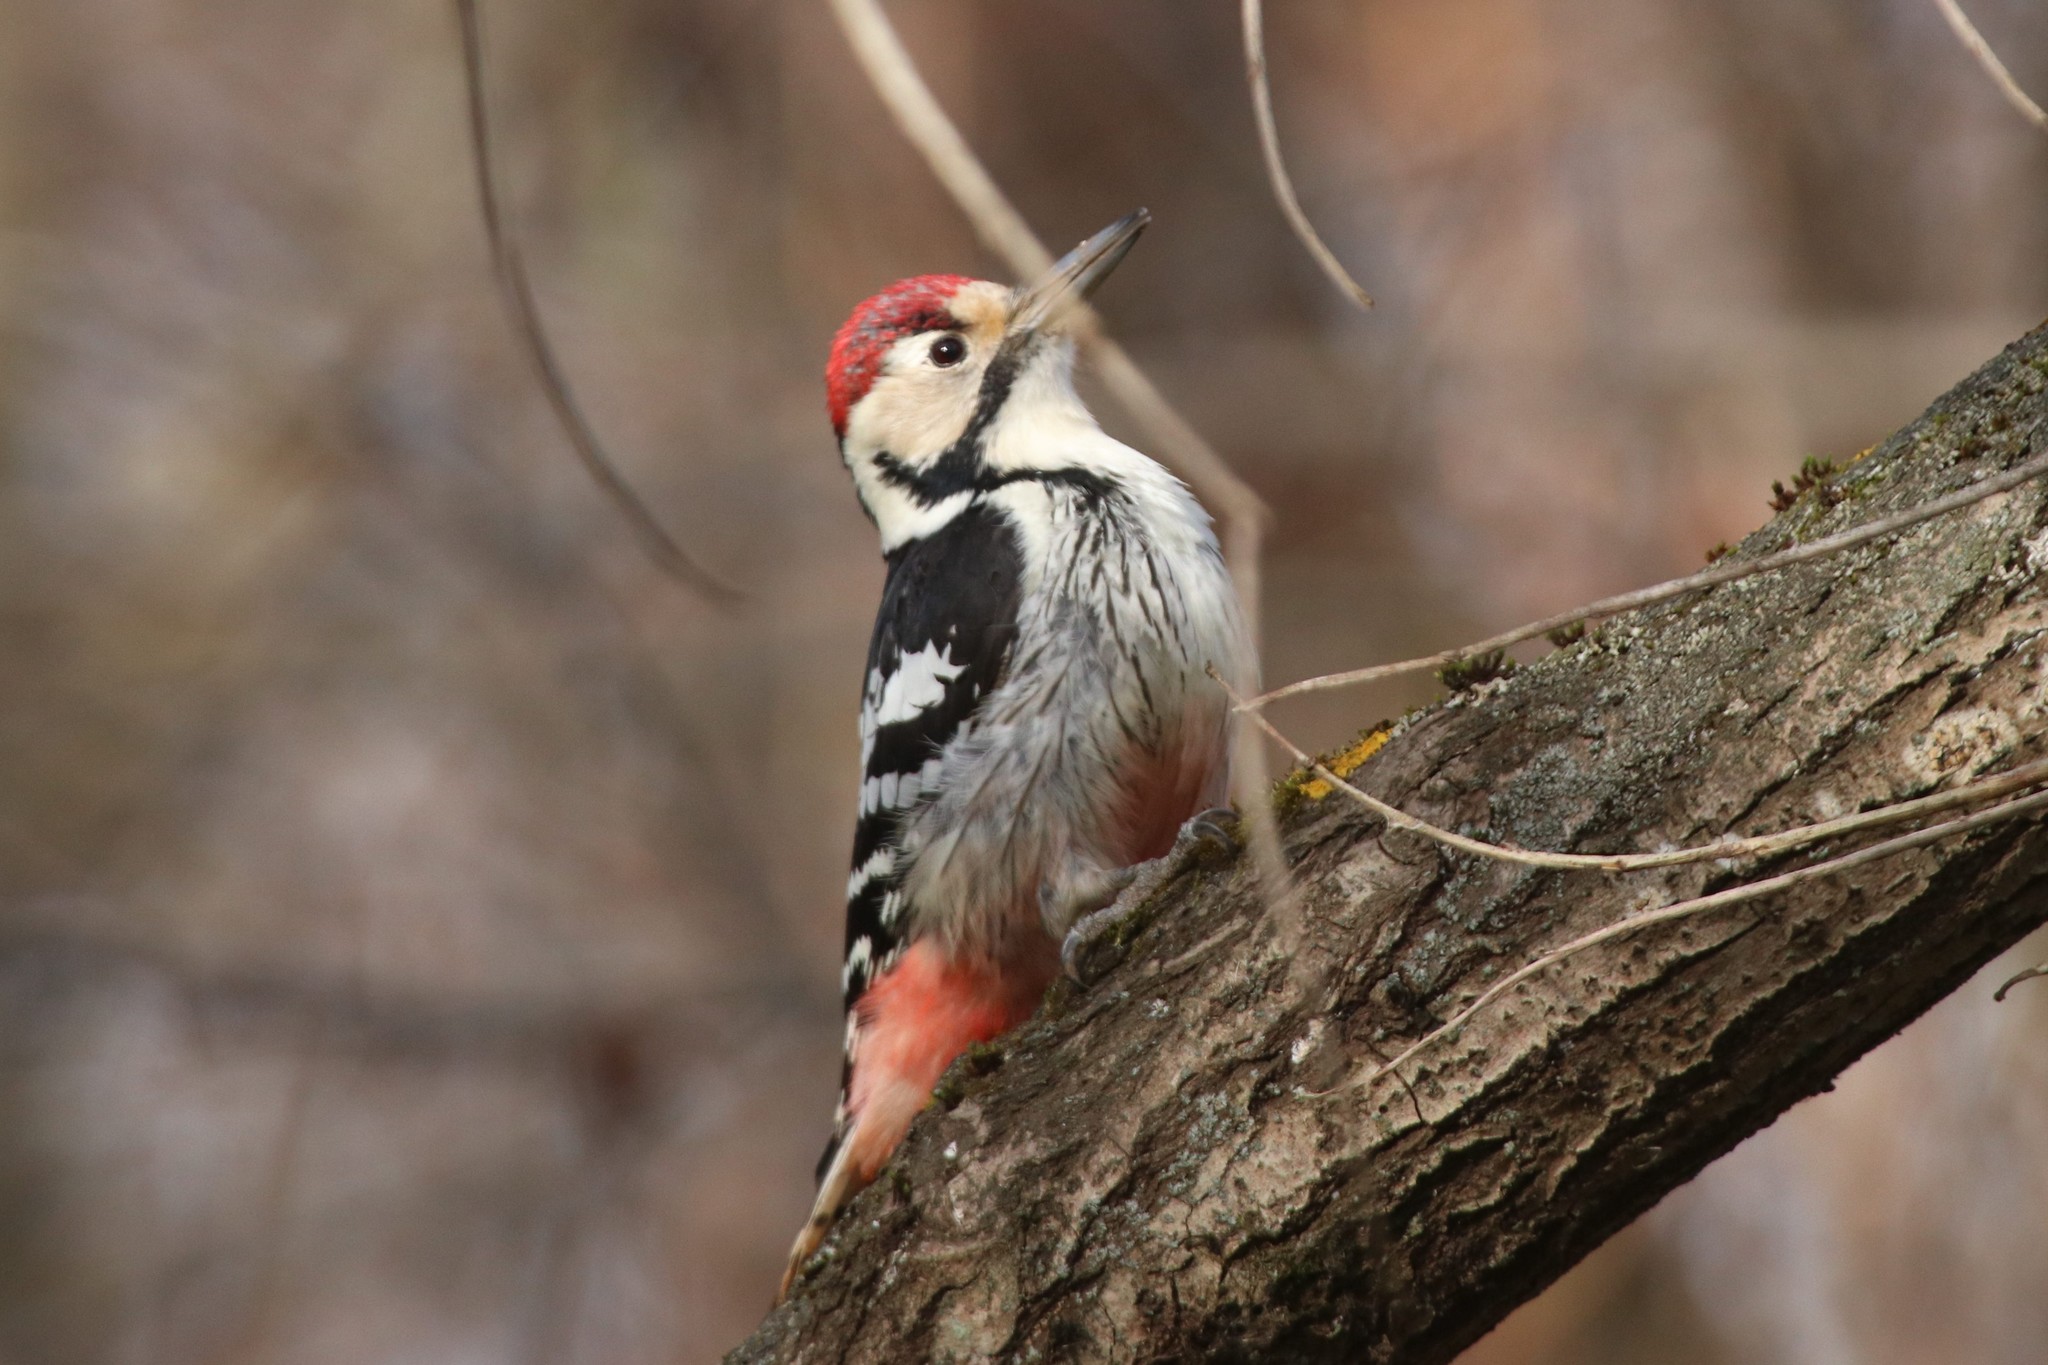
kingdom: Animalia
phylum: Chordata
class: Aves
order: Piciformes
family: Picidae
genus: Dendrocopos
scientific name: Dendrocopos leucotos
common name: White-backed woodpecker
